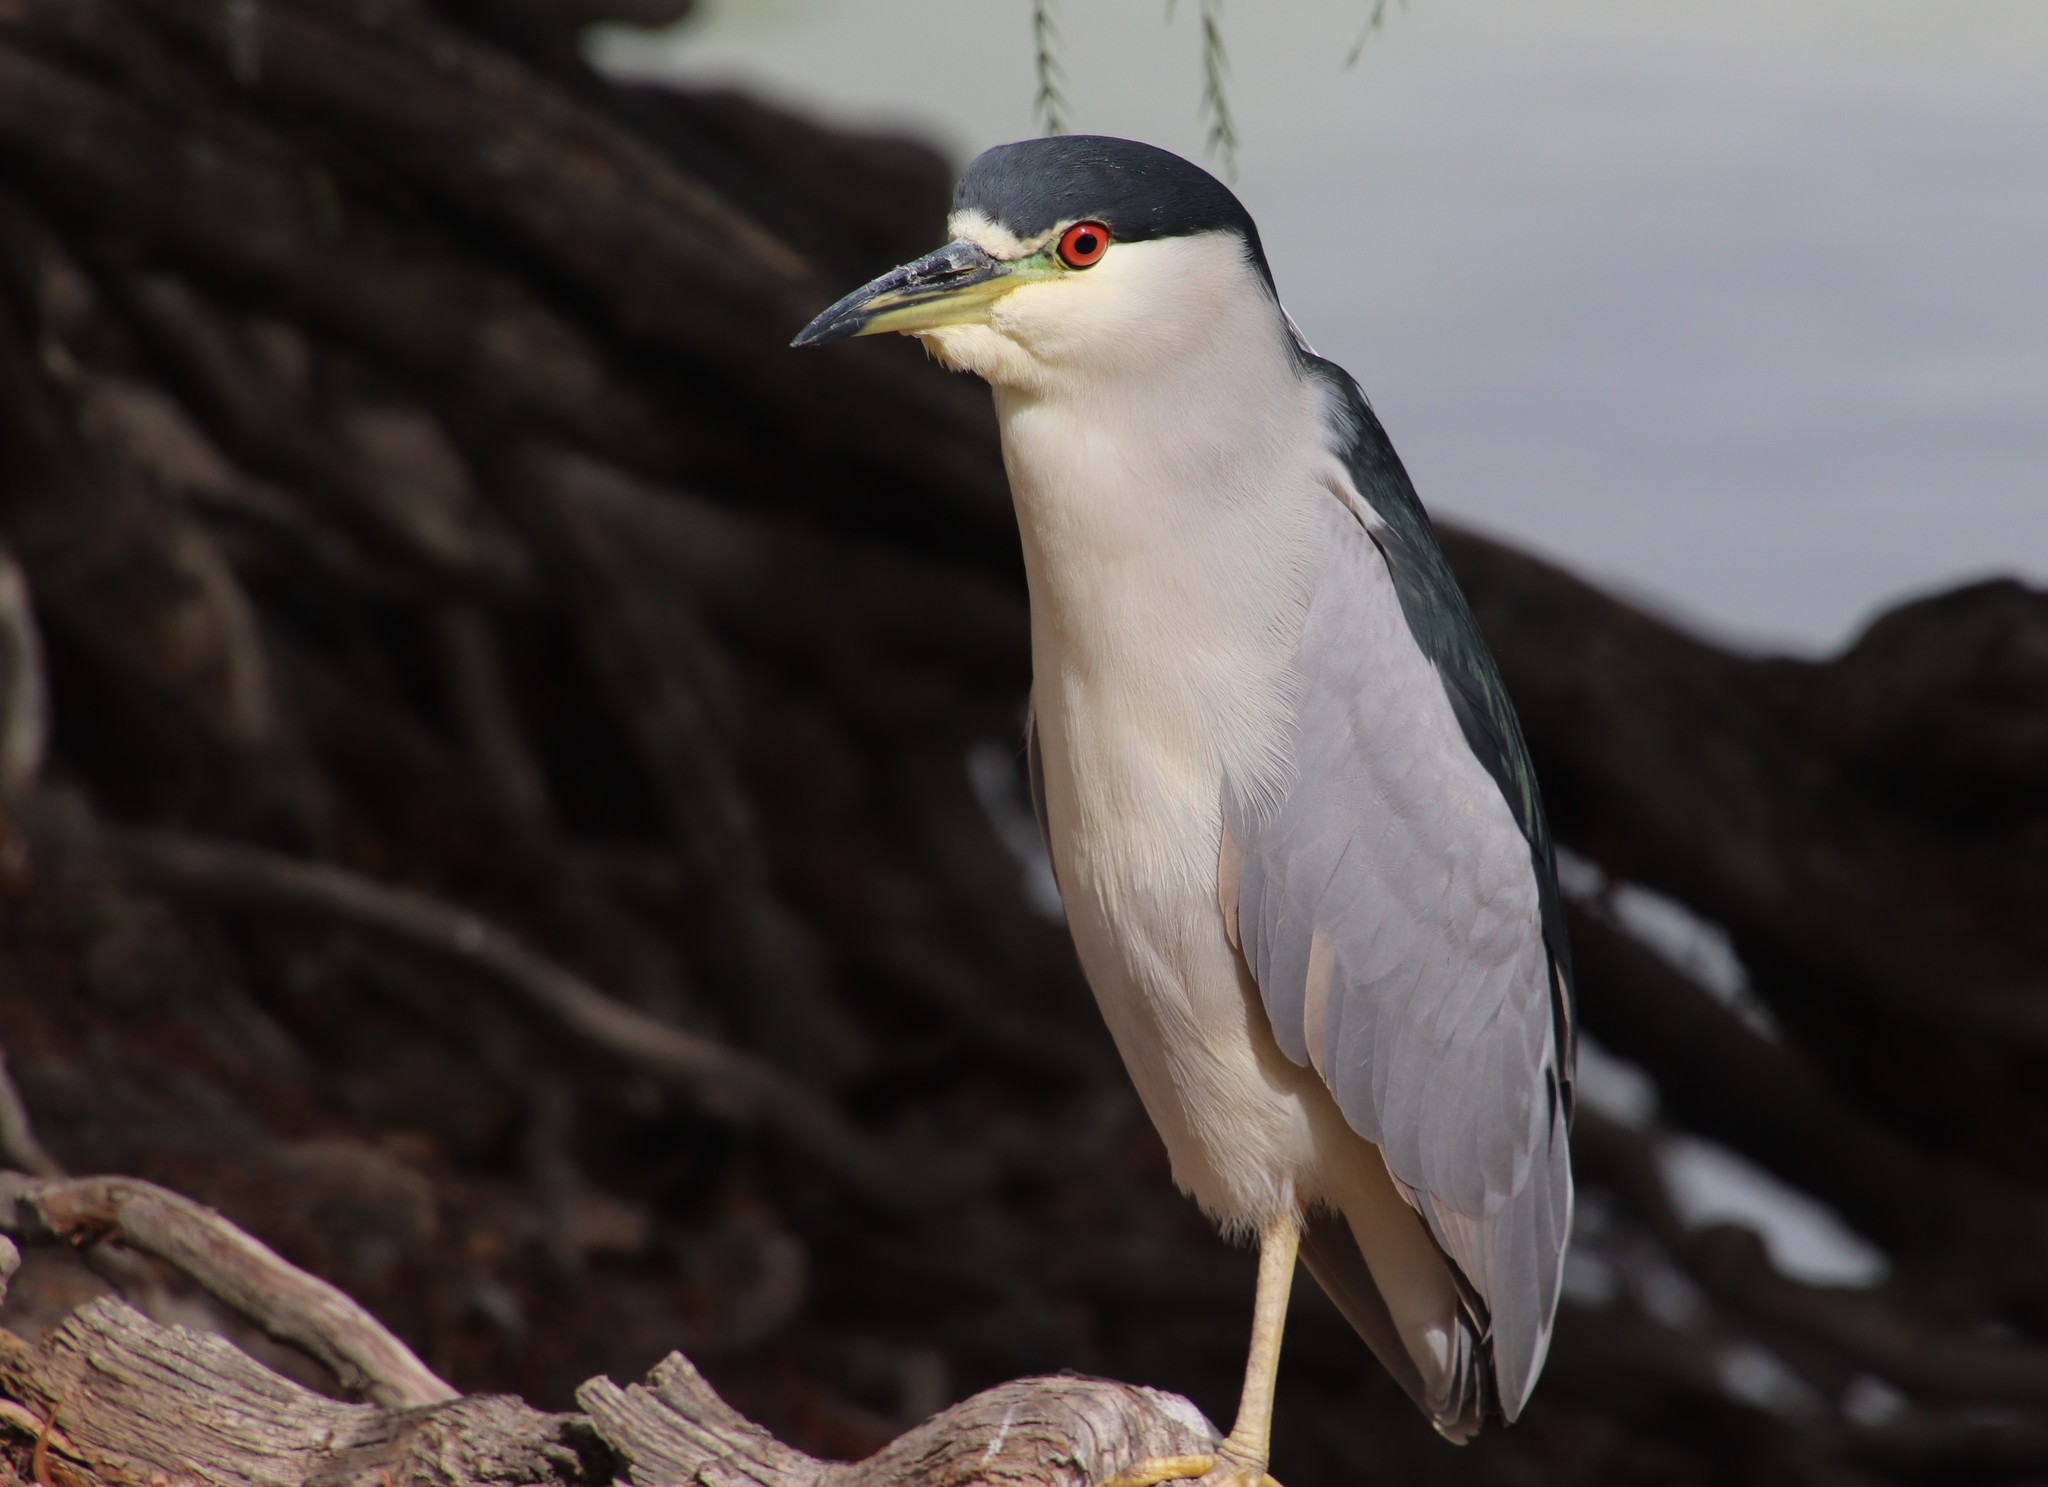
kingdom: Animalia
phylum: Chordata
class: Aves
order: Pelecaniformes
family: Ardeidae
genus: Nycticorax
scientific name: Nycticorax nycticorax
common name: Black-crowned night heron
